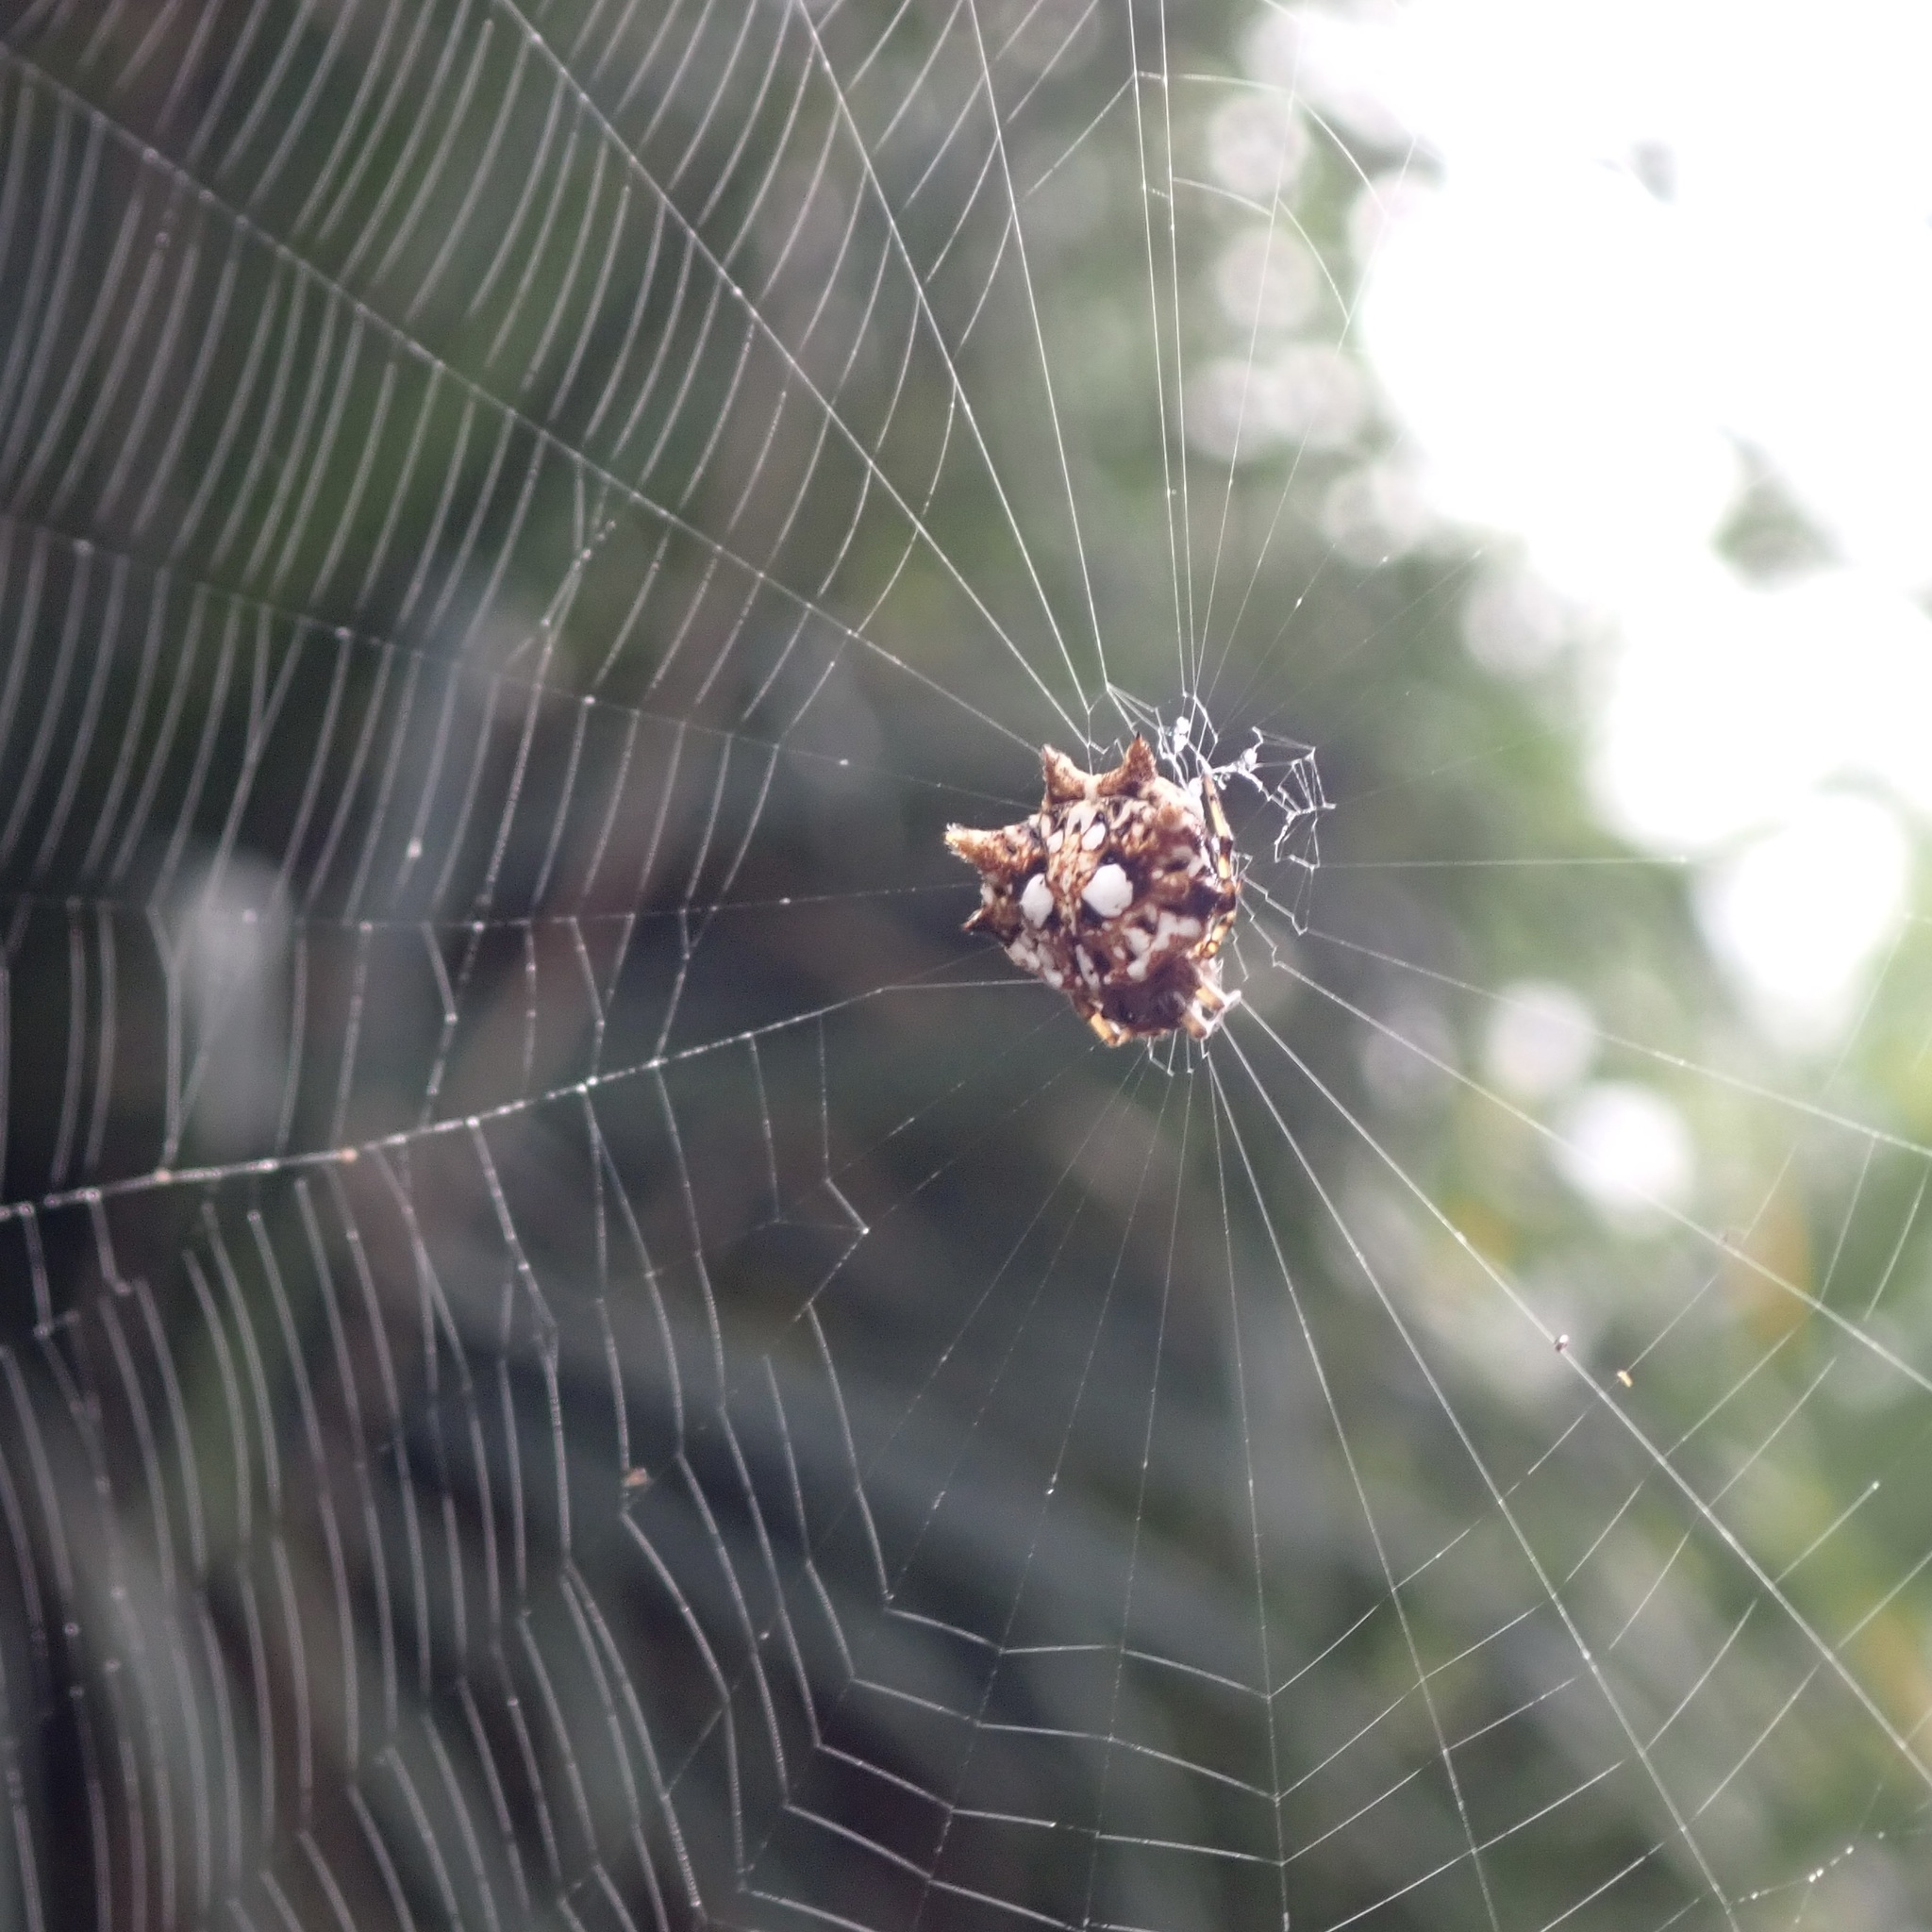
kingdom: Animalia
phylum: Arthropoda
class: Arachnida
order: Araneae
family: Araneidae
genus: Thelacantha
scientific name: Thelacantha brevispina
